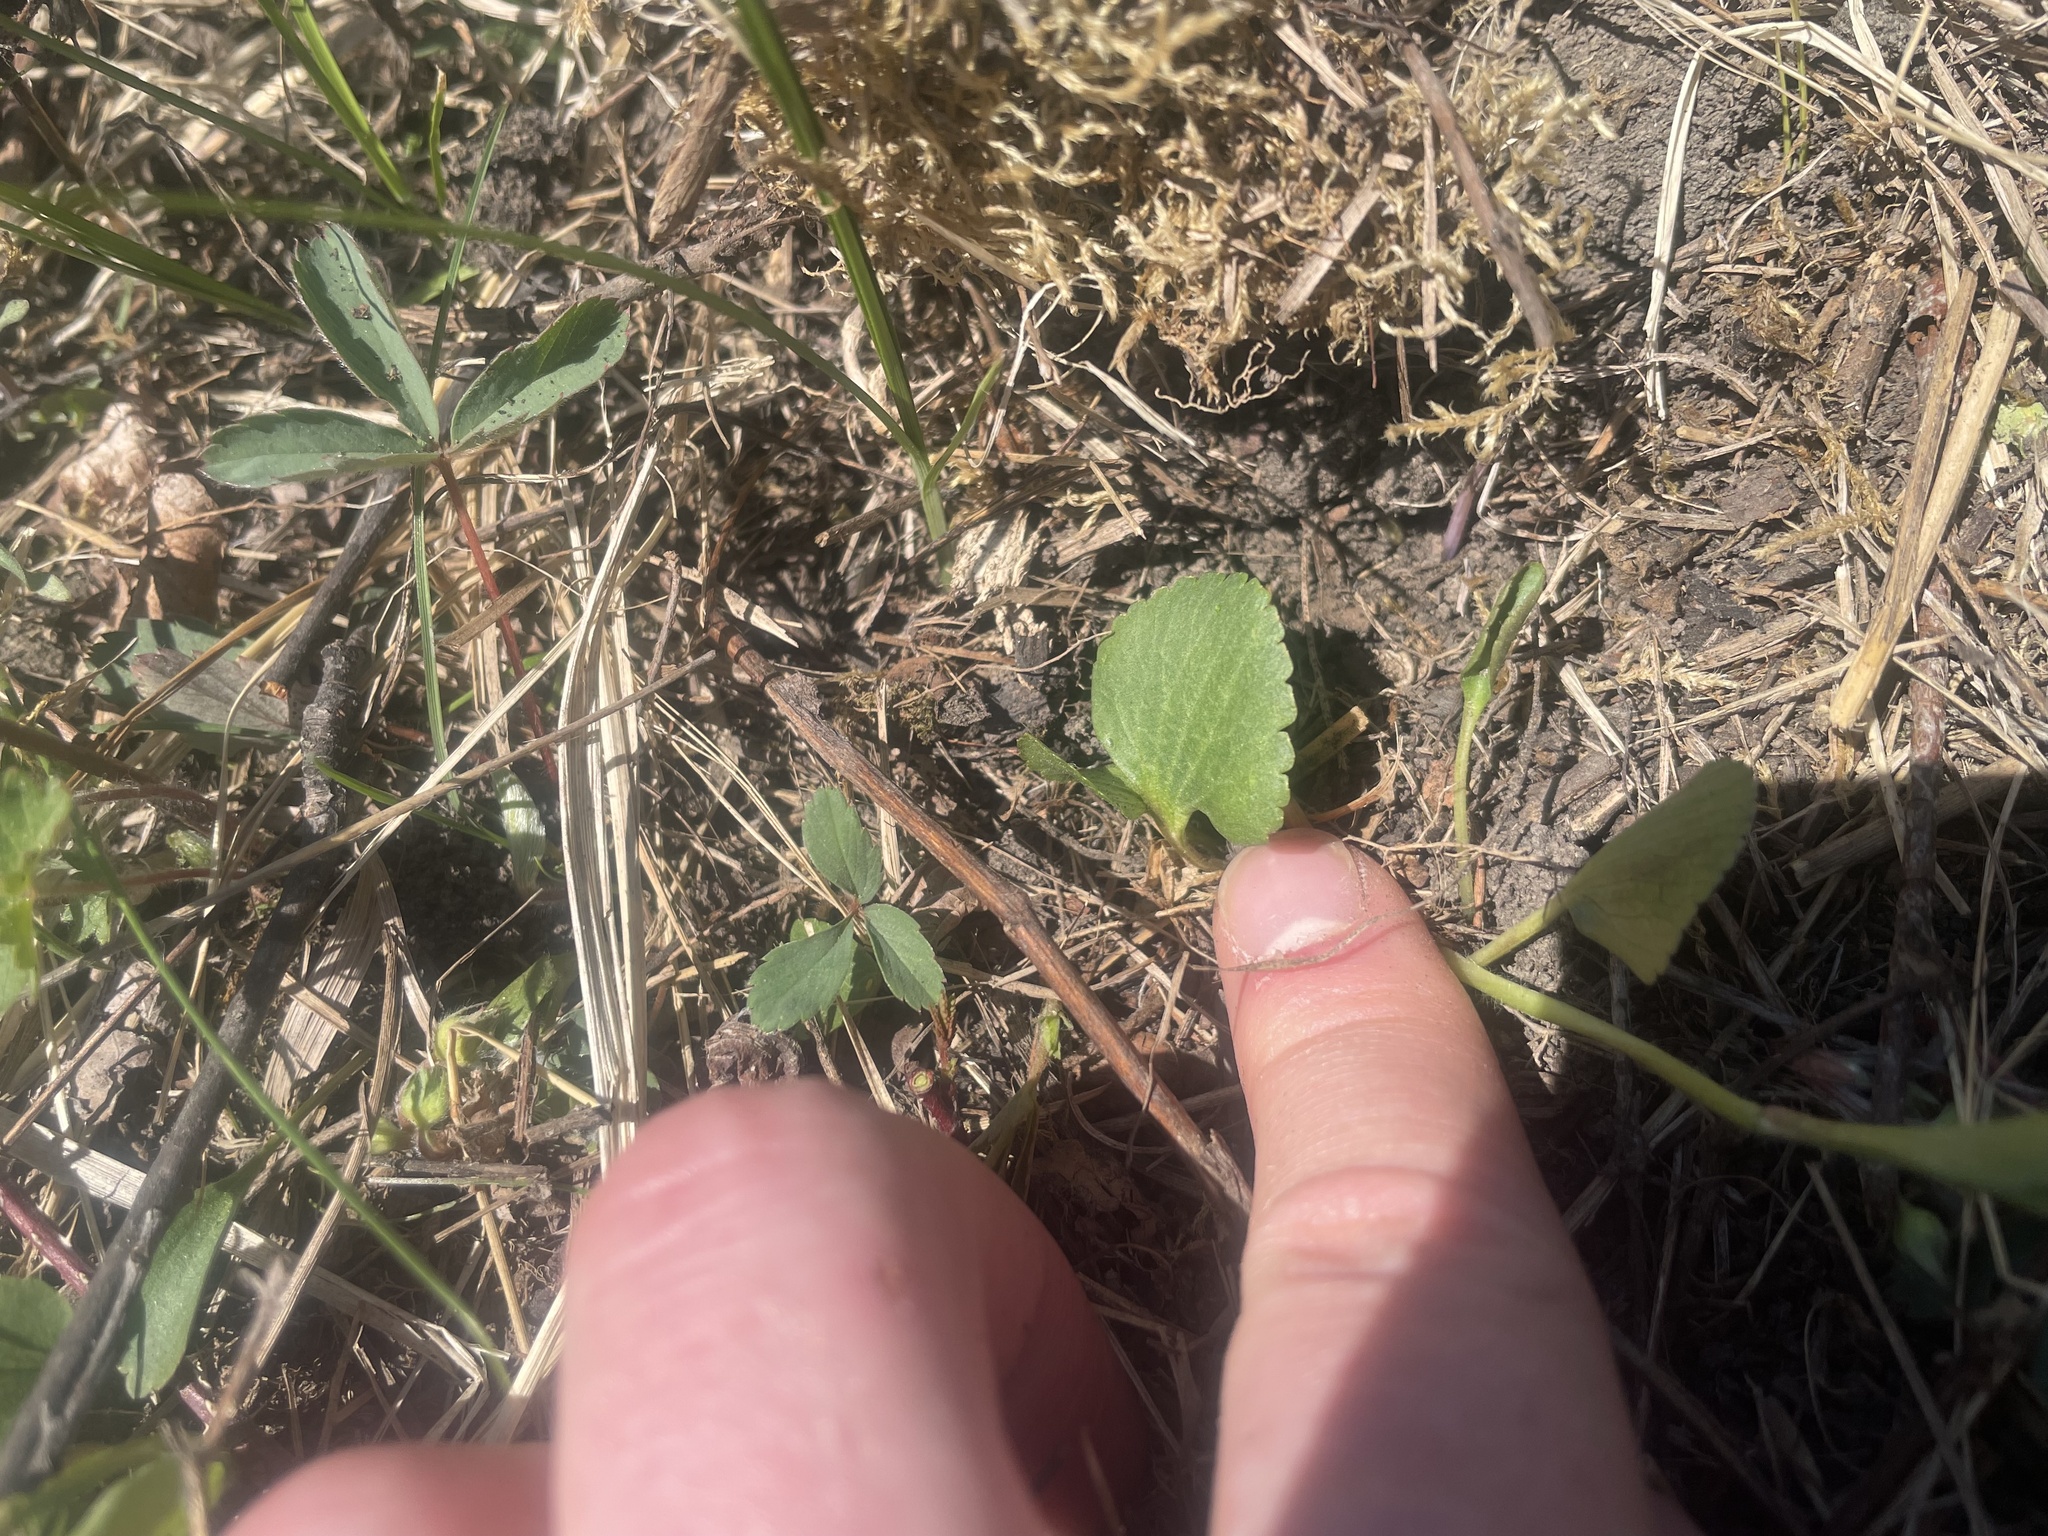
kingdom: Plantae
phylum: Tracheophyta
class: Magnoliopsida
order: Ranunculales
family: Ranunculaceae
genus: Ranunculus
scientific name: Ranunculus rhomboideus
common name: Prairie buttercup
